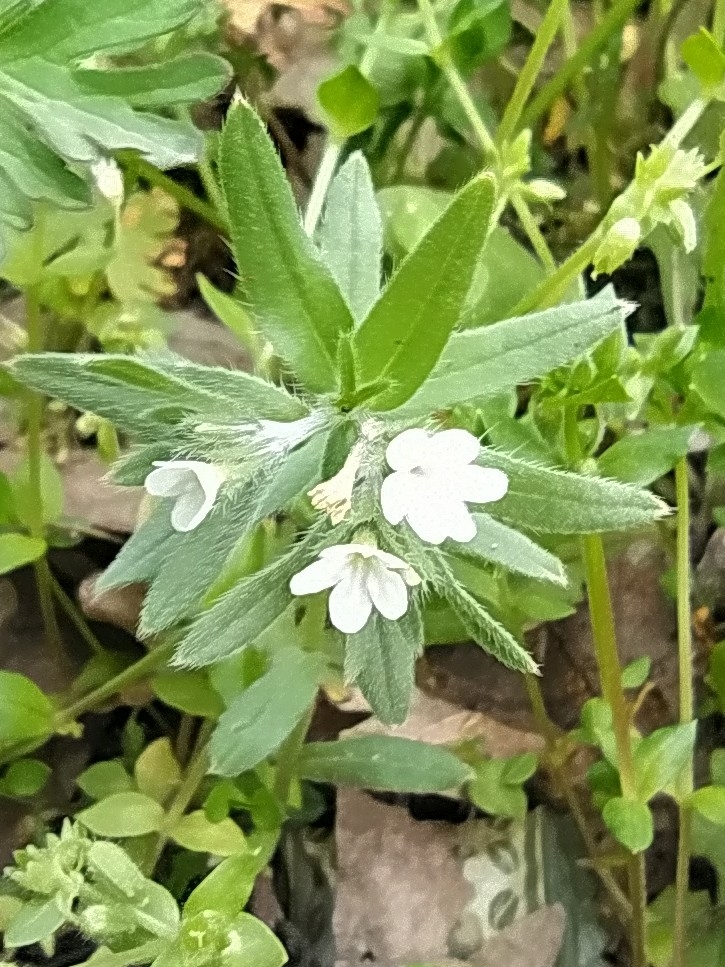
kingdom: Plantae
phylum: Tracheophyta
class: Magnoliopsida
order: Boraginales
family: Boraginaceae
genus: Buglossoides
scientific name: Buglossoides arvensis
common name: Corn gromwell
